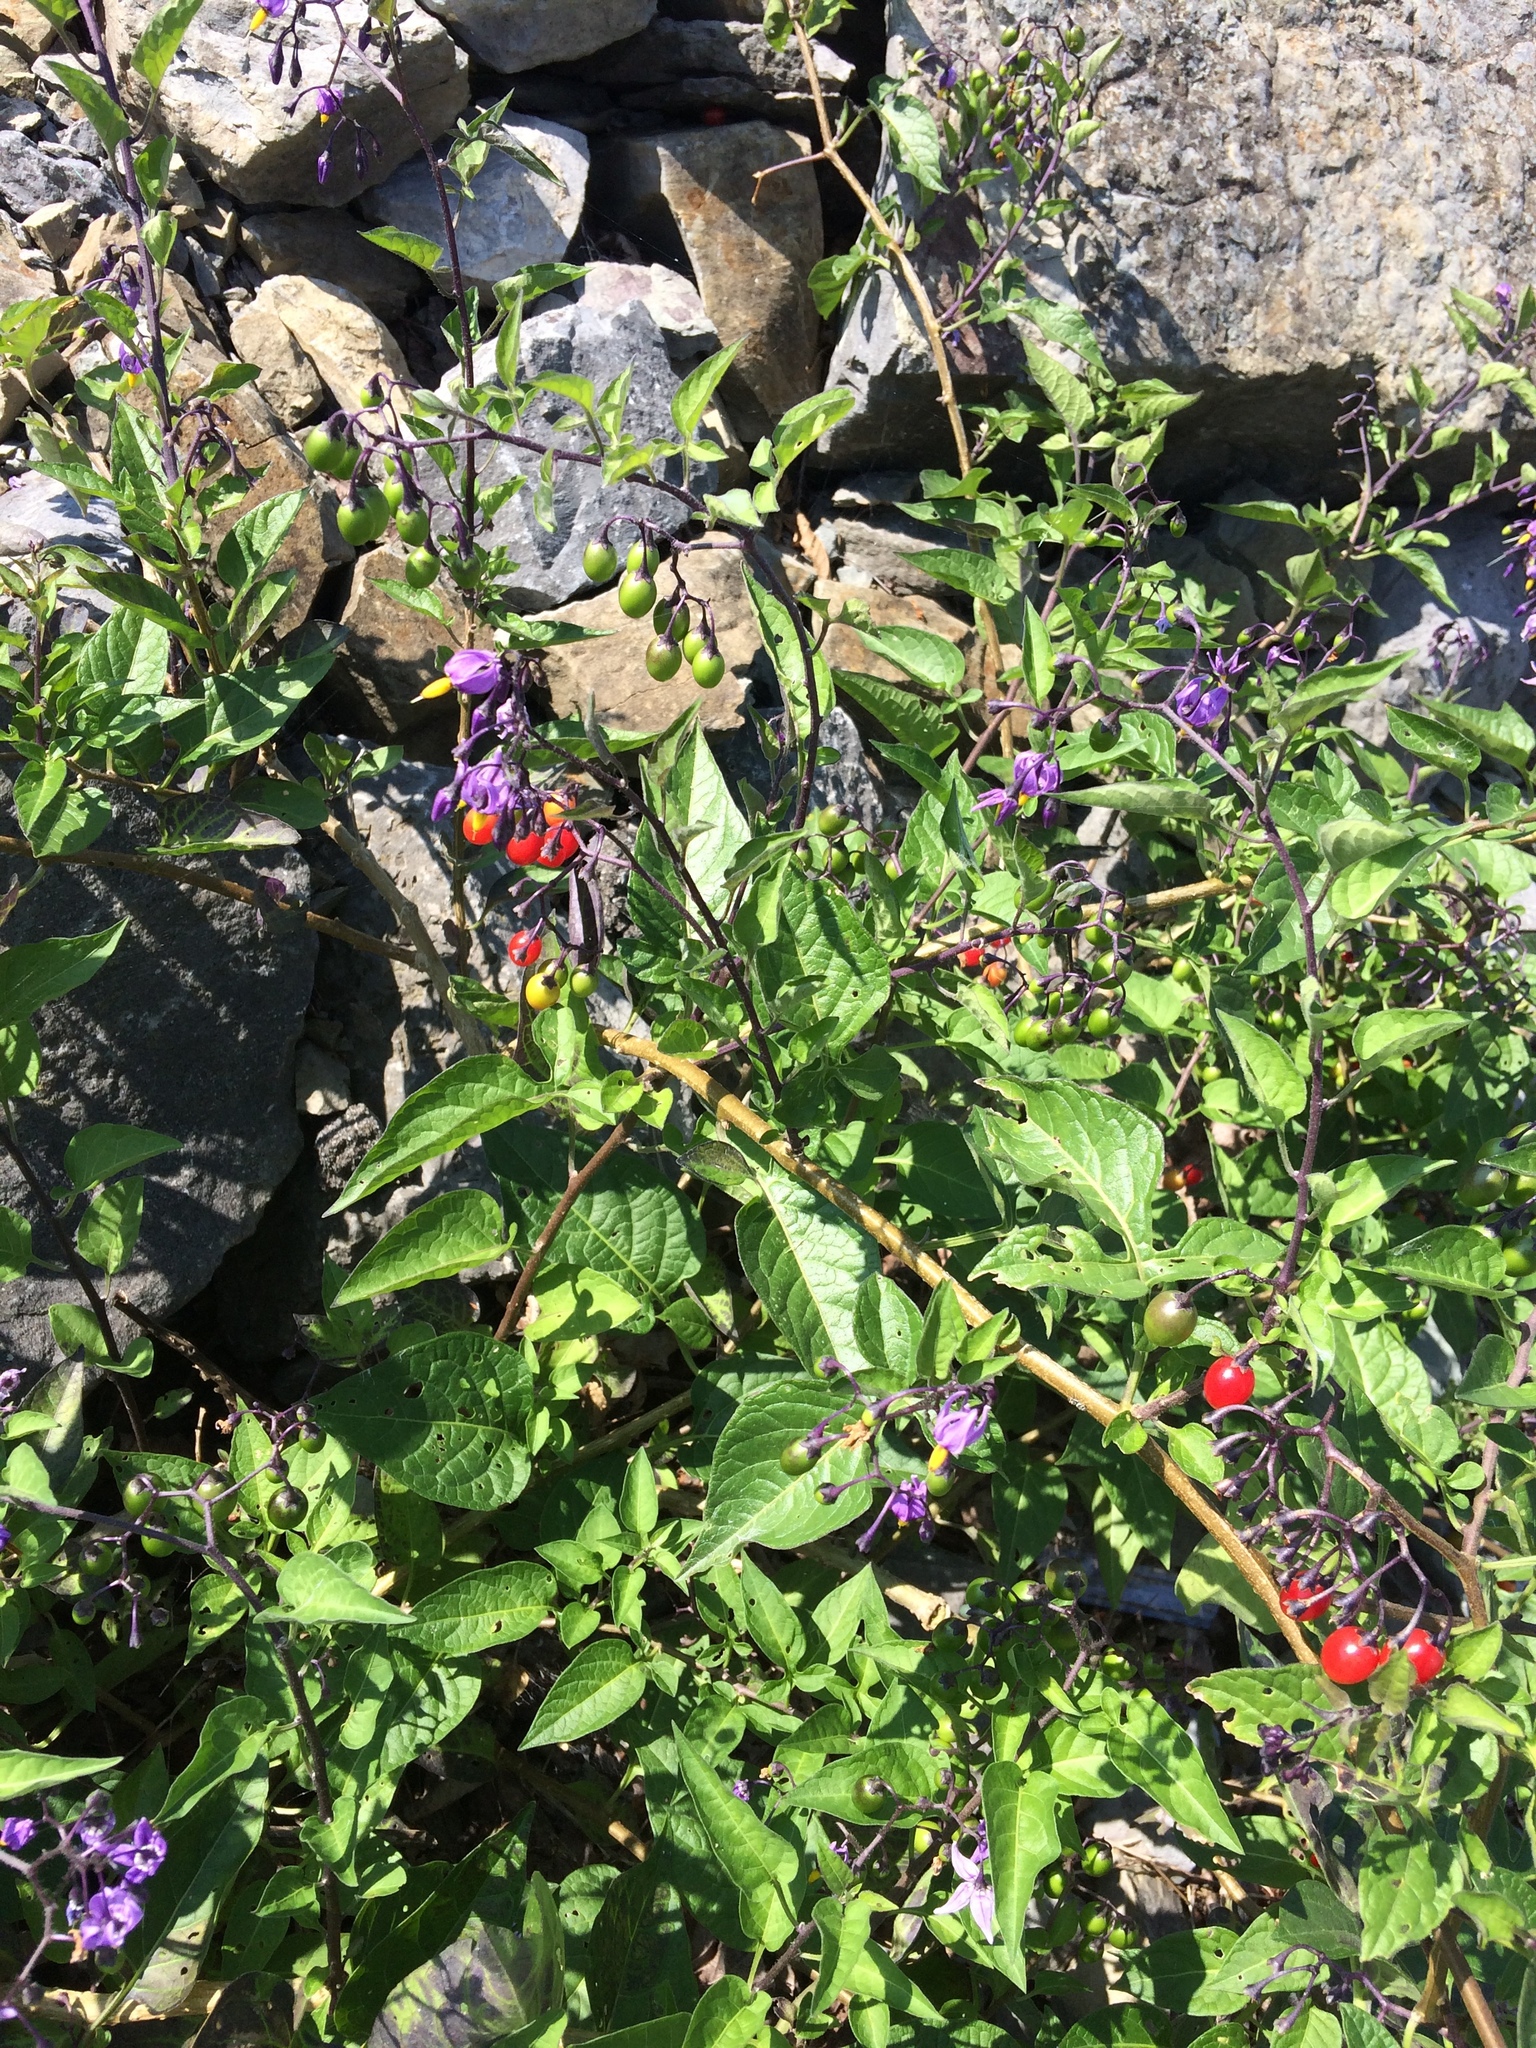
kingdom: Plantae
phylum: Tracheophyta
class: Magnoliopsida
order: Solanales
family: Solanaceae
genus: Solanum
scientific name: Solanum dulcamara
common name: Climbing nightshade
